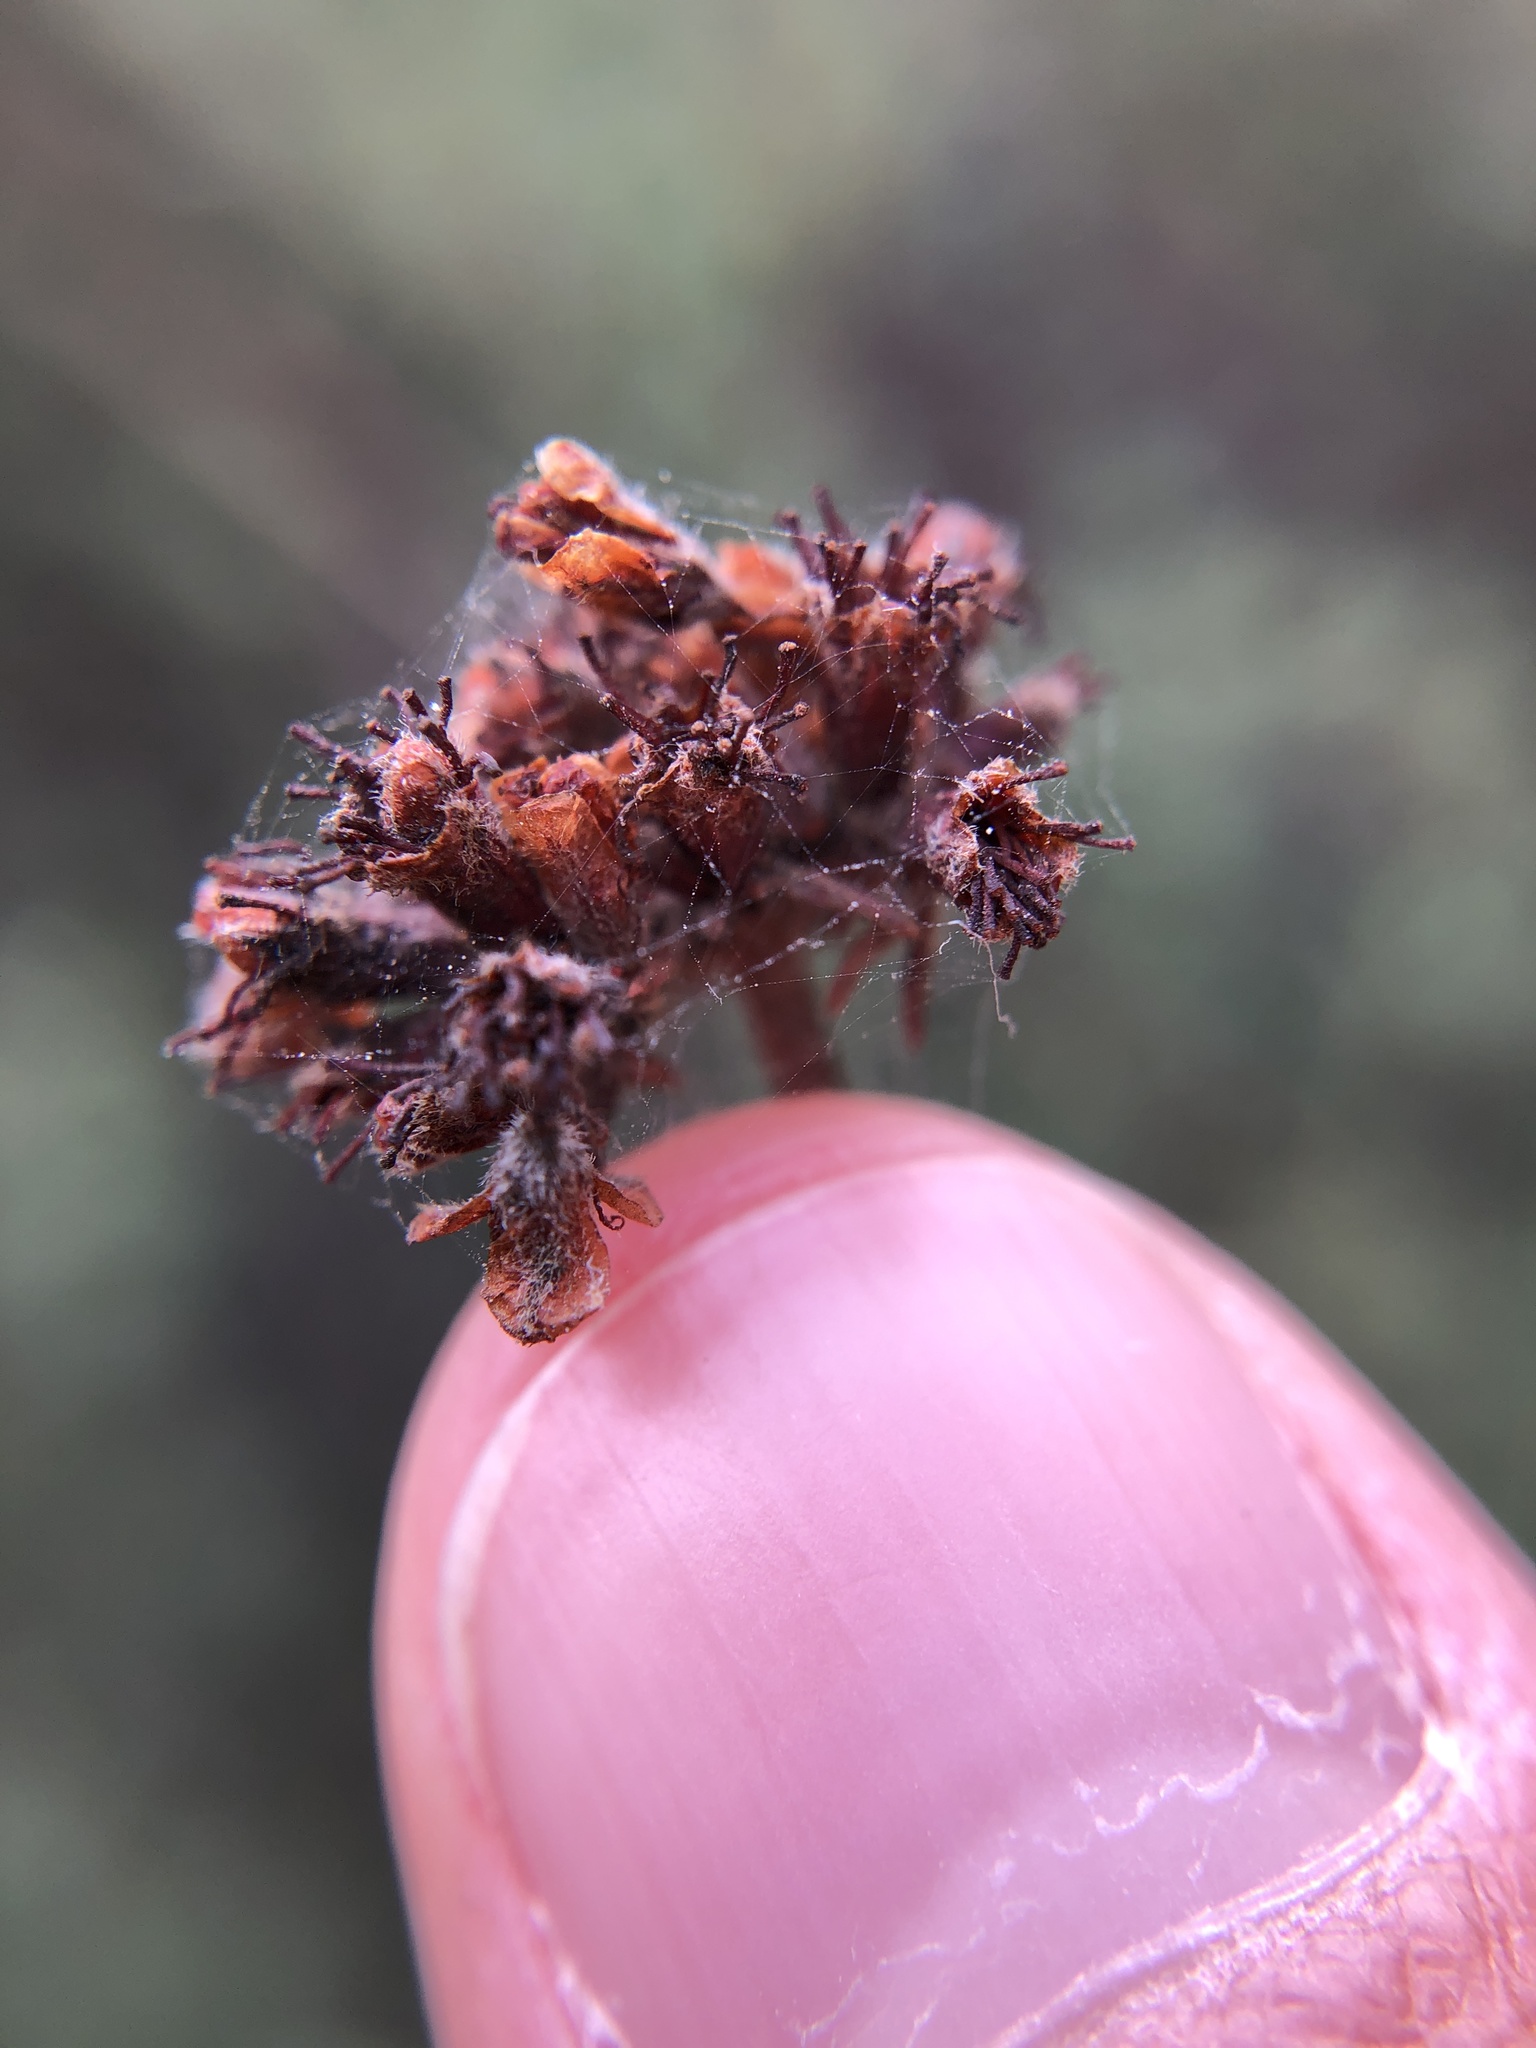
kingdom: Plantae
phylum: Tracheophyta
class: Magnoliopsida
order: Caryophyllales
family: Polygonaceae
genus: Eriogonum
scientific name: Eriogonum fasciculatum
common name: California wild buckwheat
